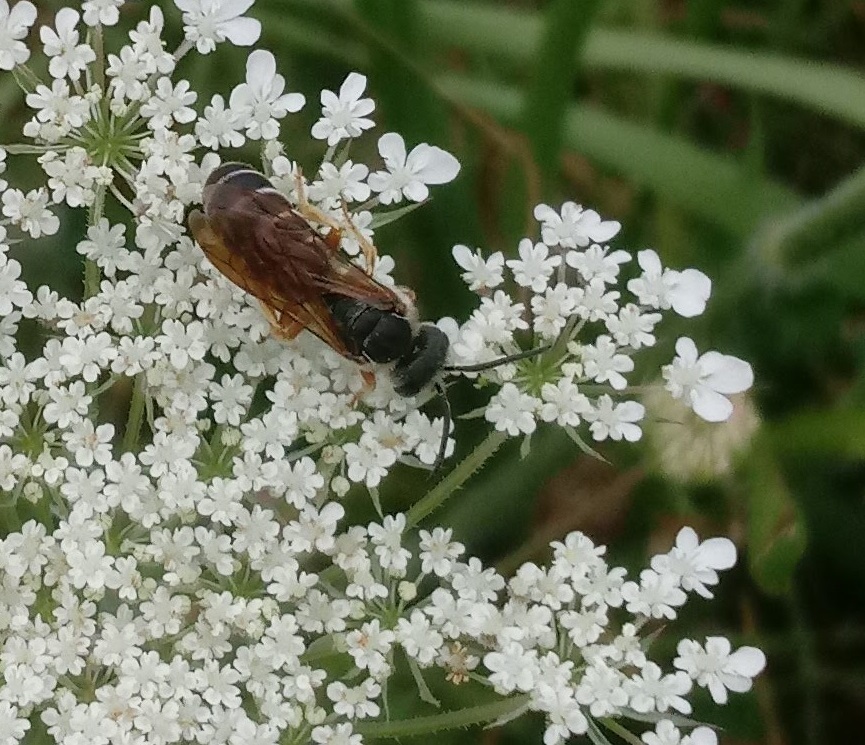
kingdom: Animalia
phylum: Arthropoda
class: Insecta
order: Hymenoptera
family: Halictidae
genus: Halictus
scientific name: Halictus parallelus
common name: Parallel-striped sweat bee
